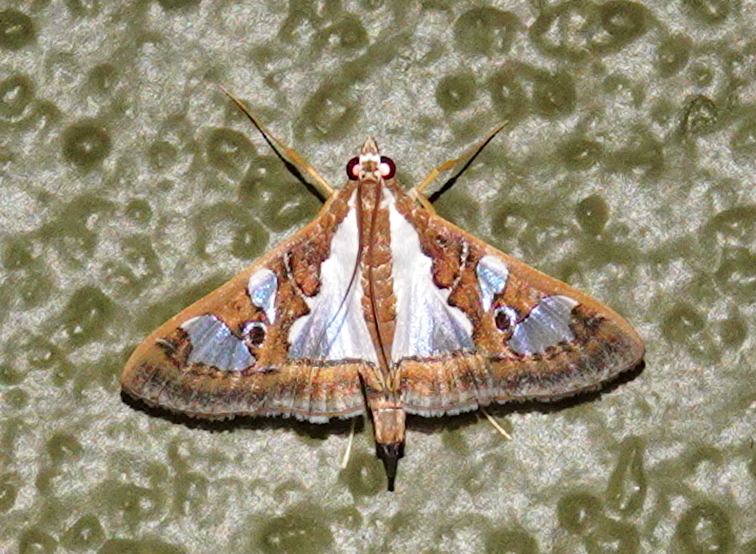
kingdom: Animalia
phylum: Arthropoda
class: Insecta
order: Lepidoptera
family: Crambidae
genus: Glyphodes
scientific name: Glyphodes bivitralis
